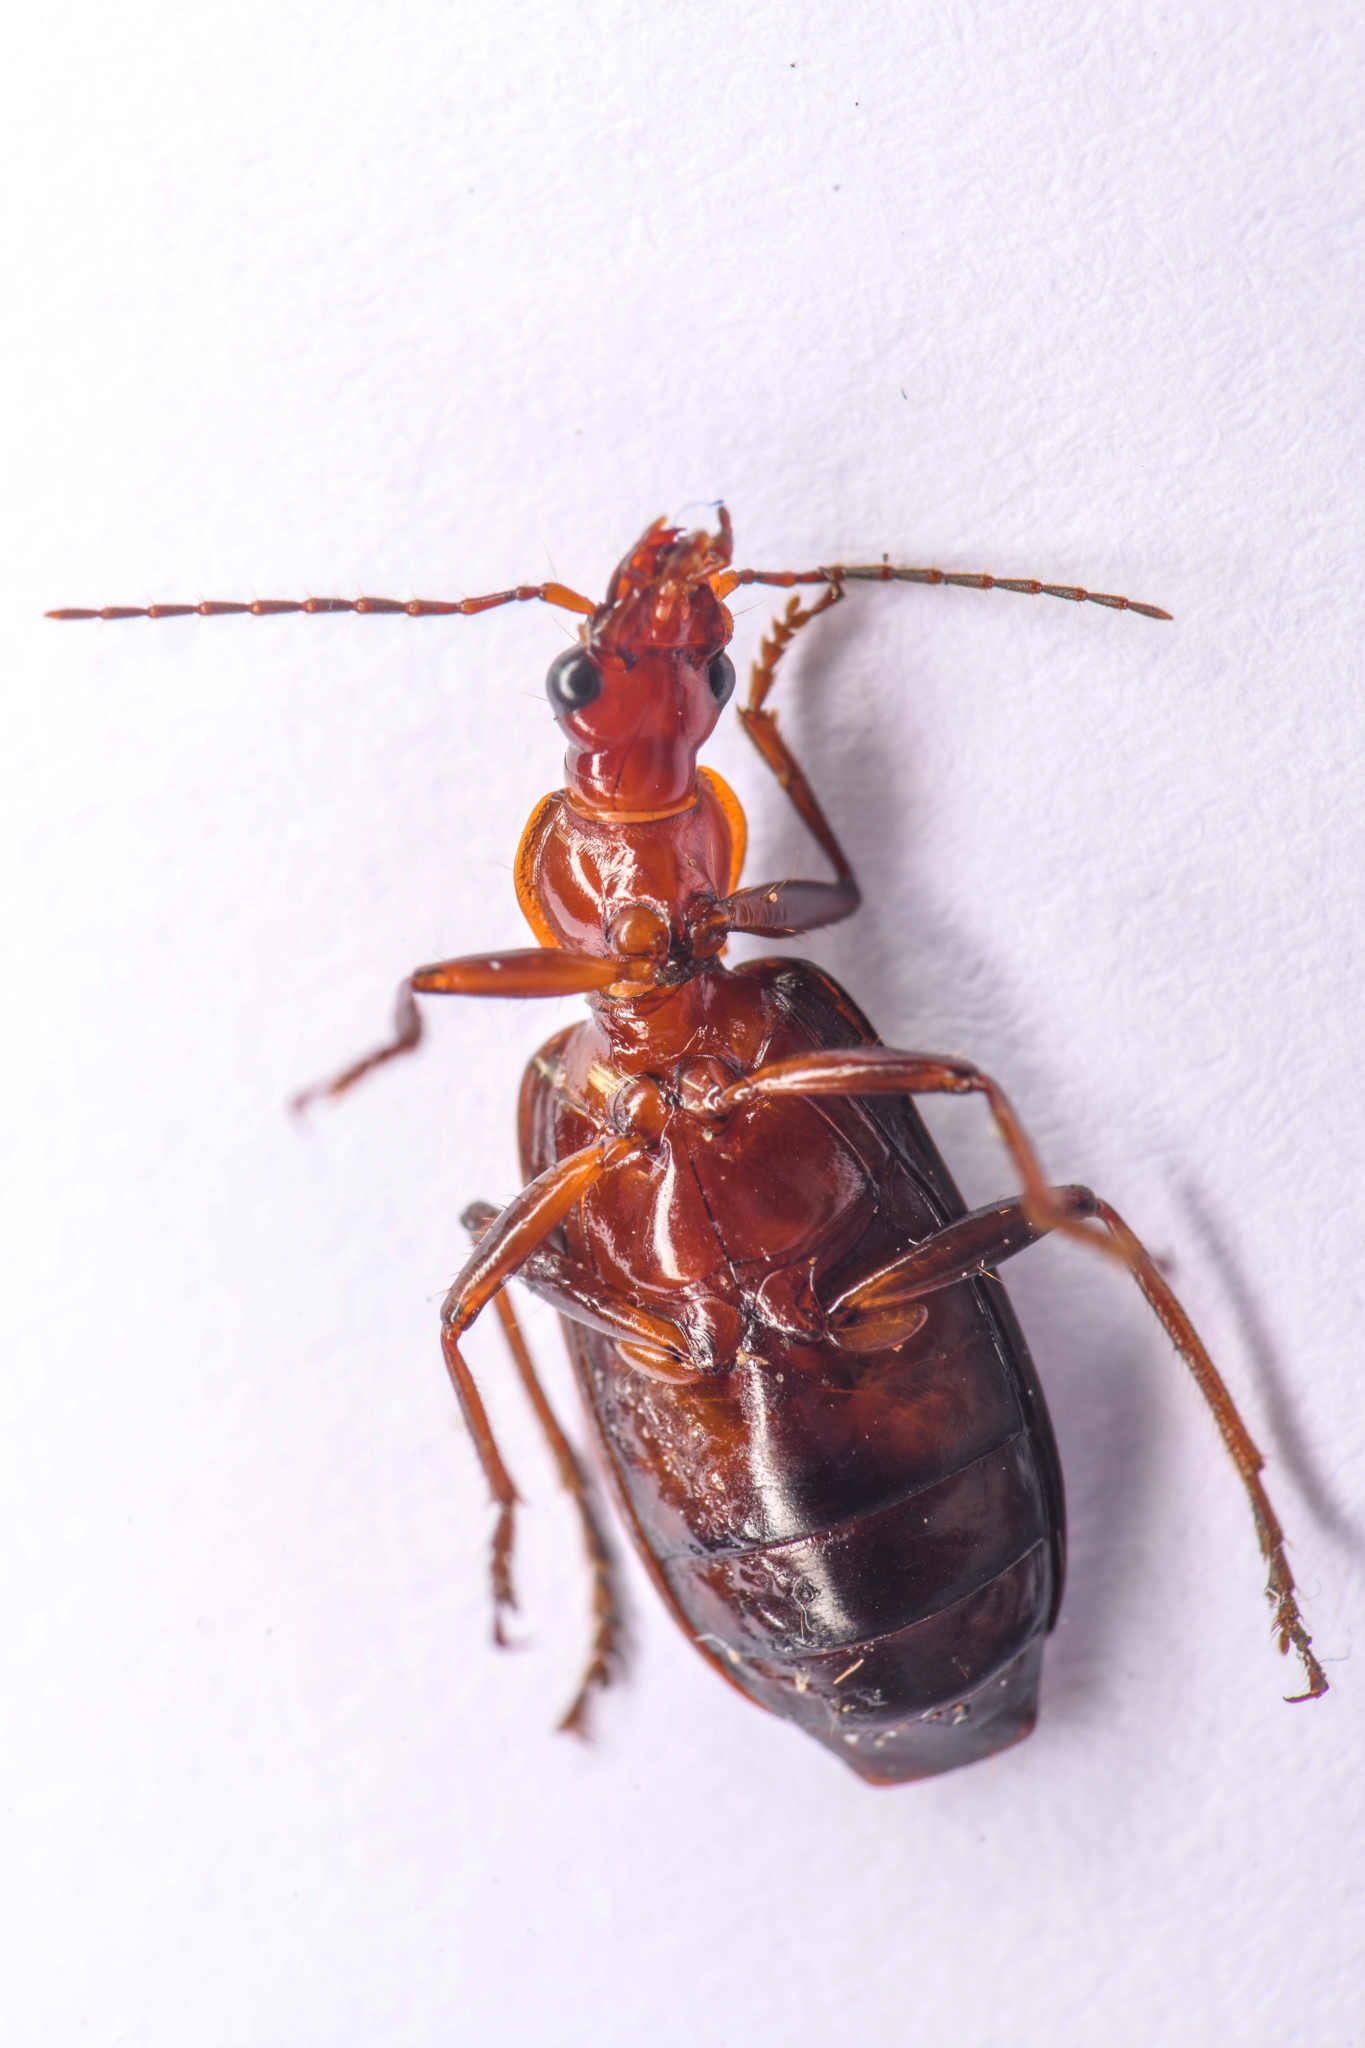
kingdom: Animalia
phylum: Arthropoda
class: Insecta
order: Coleoptera
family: Carabidae
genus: Calleida
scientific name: Calleida platynoides
